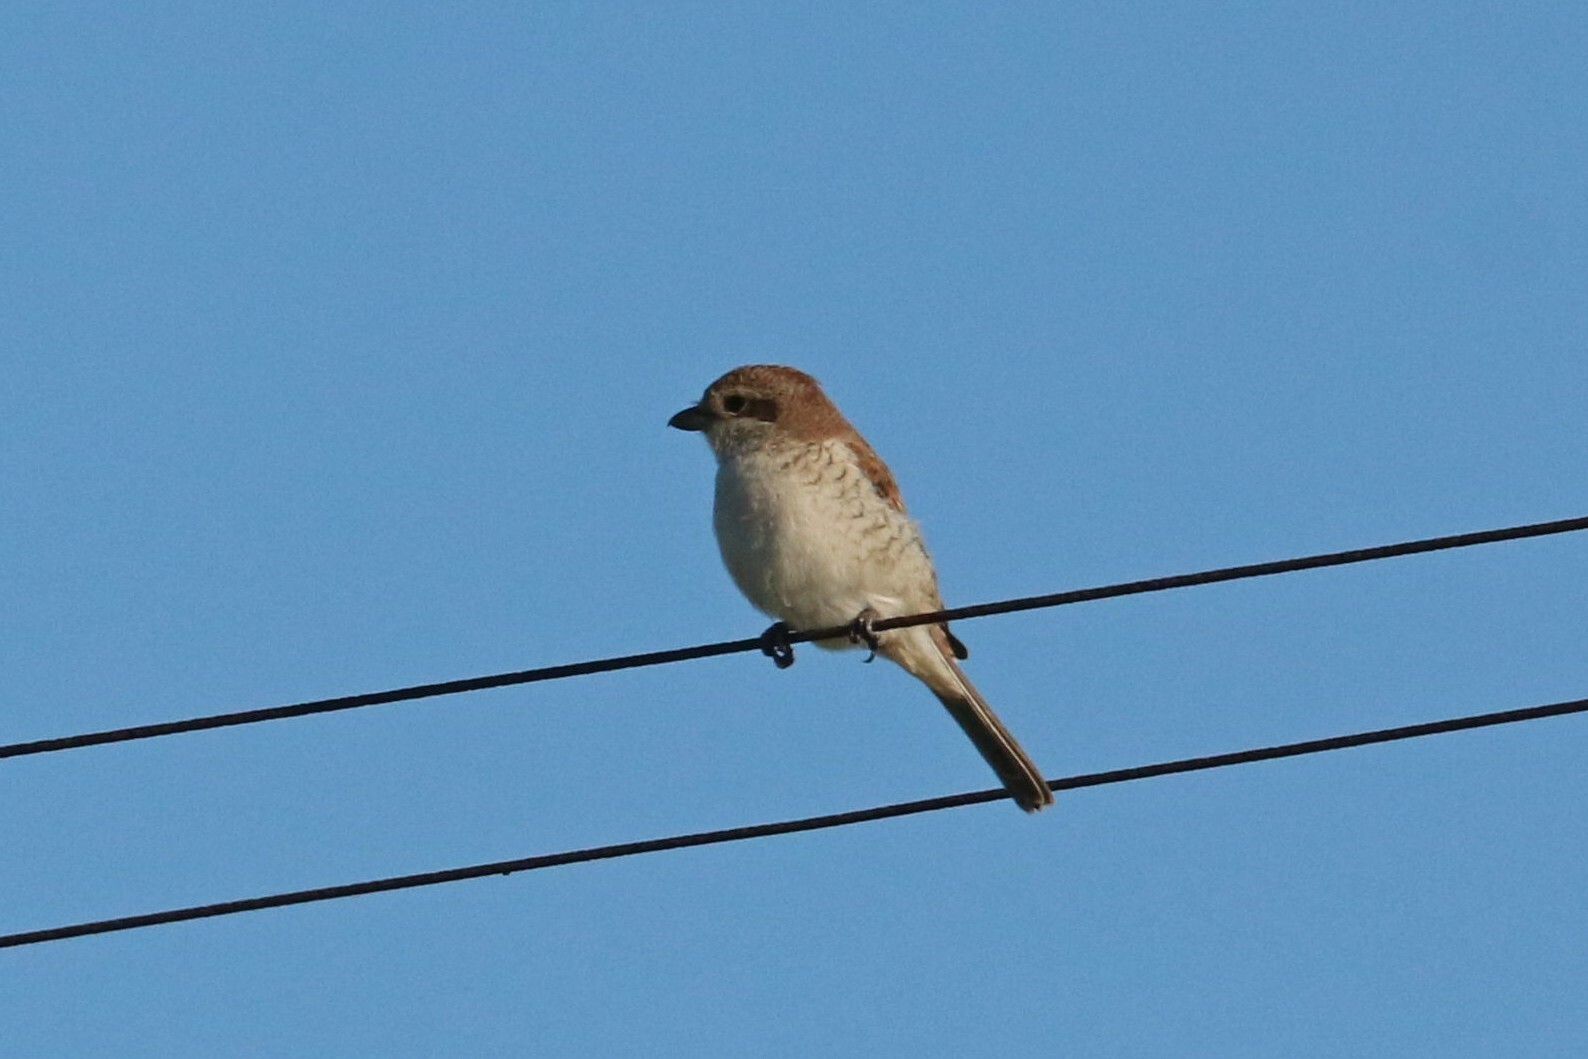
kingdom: Animalia
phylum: Chordata
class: Aves
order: Passeriformes
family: Laniidae
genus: Lanius
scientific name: Lanius collurio
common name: Red-backed shrike
